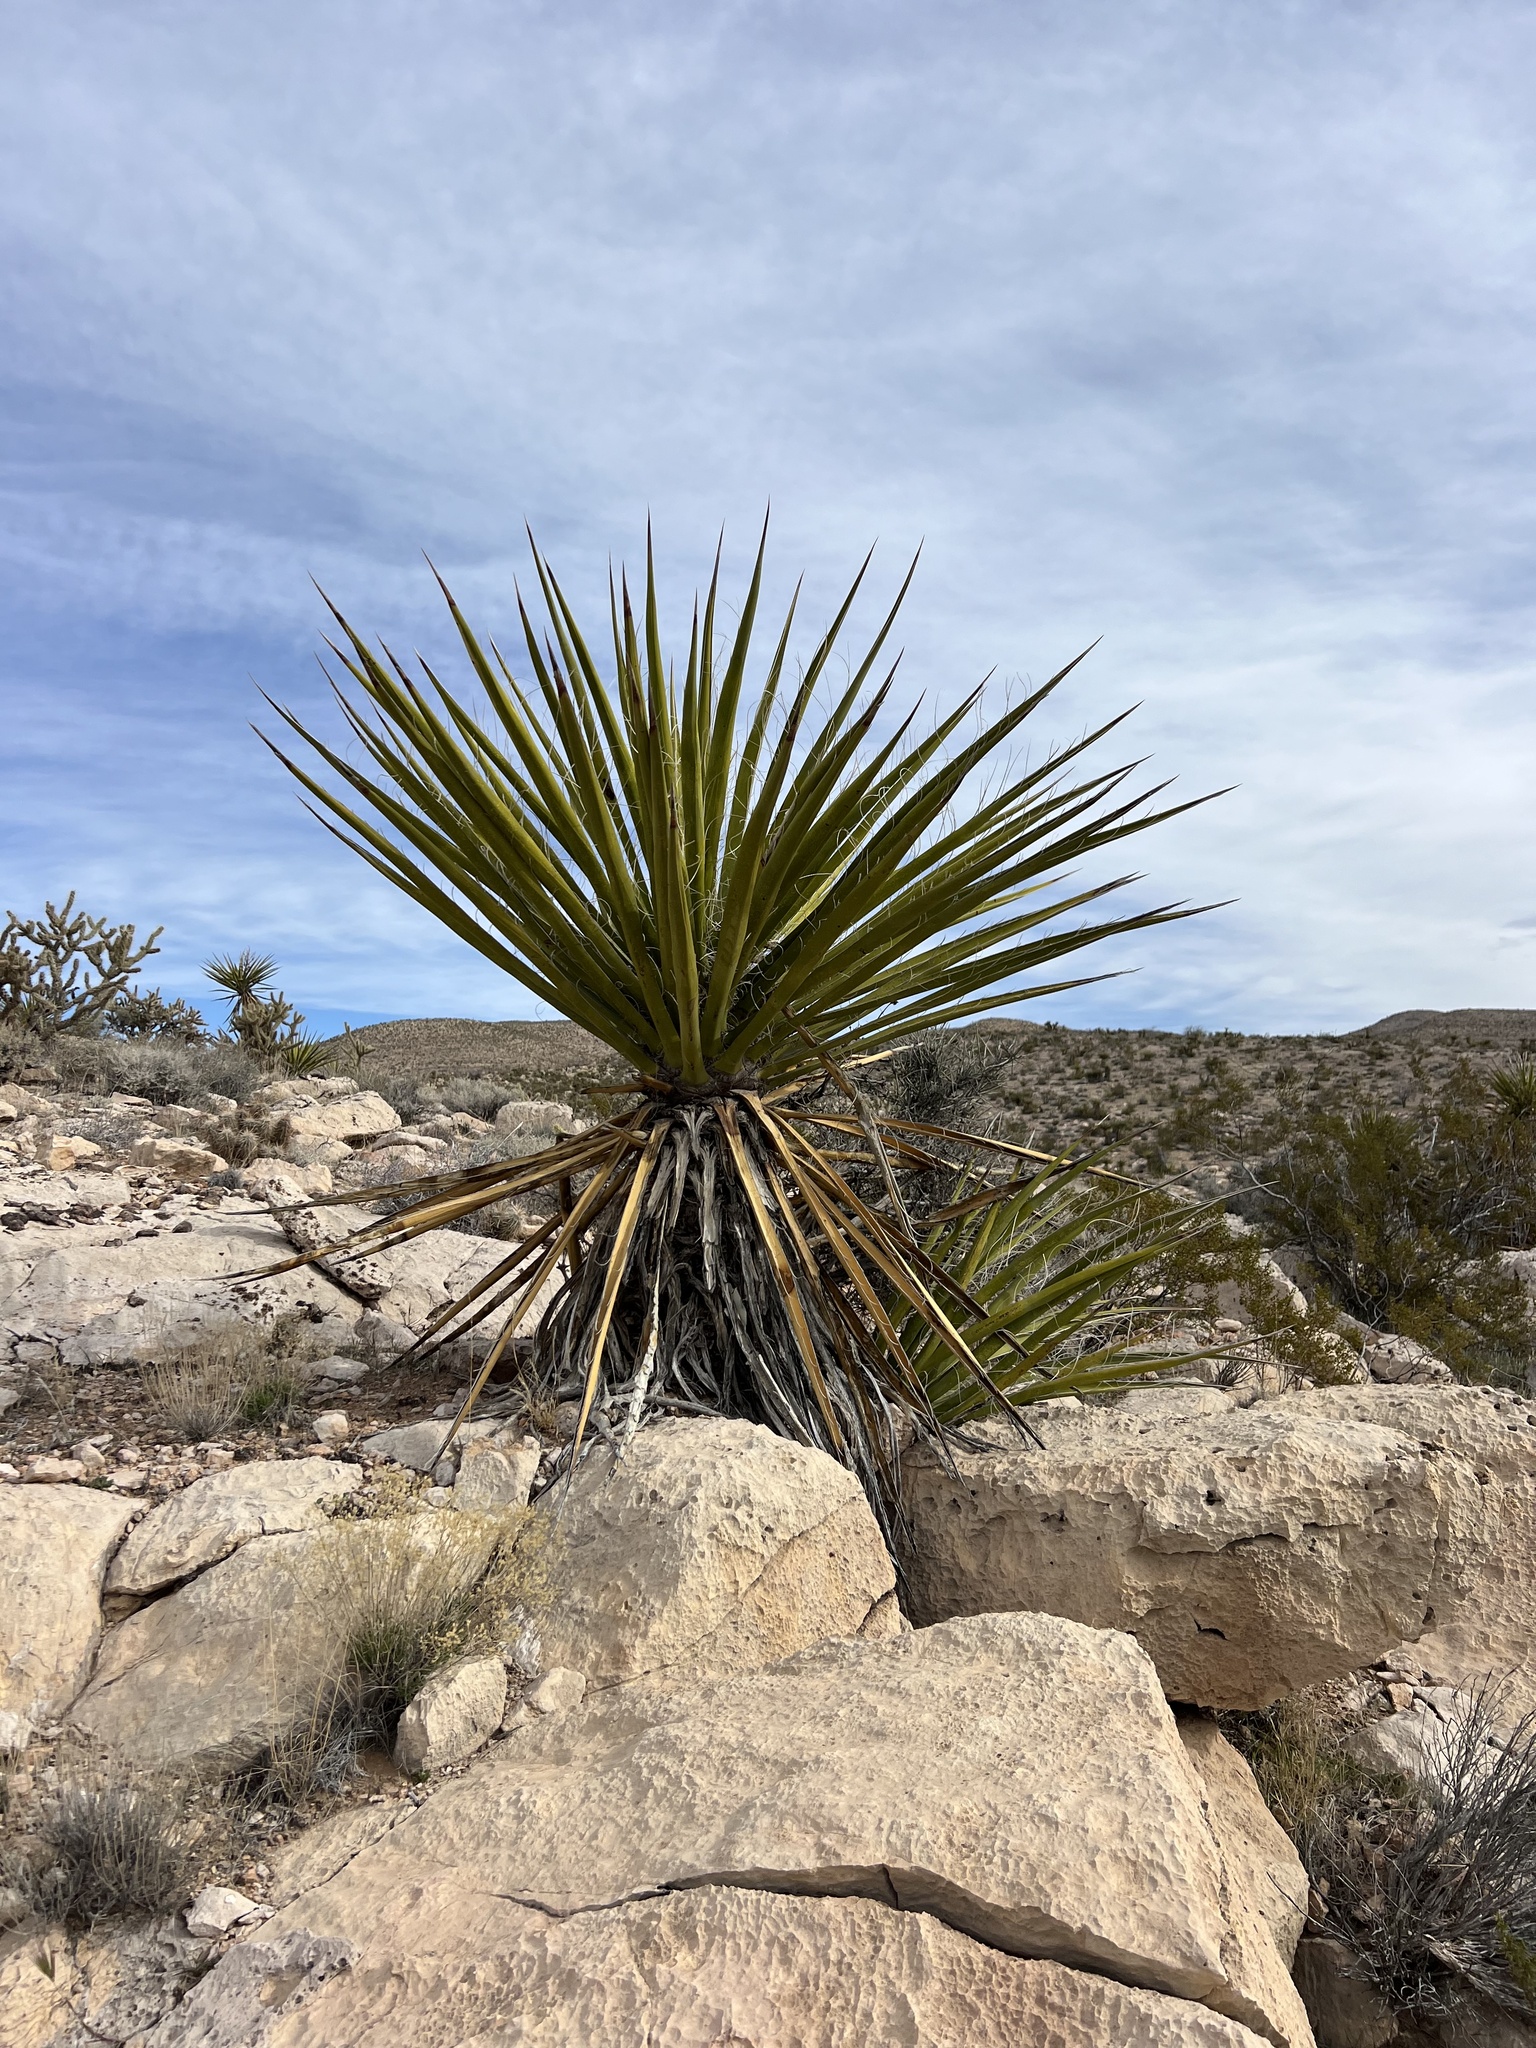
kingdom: Plantae
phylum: Tracheophyta
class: Liliopsida
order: Asparagales
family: Asparagaceae
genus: Yucca
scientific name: Yucca schidigera
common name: Mojave yucca
